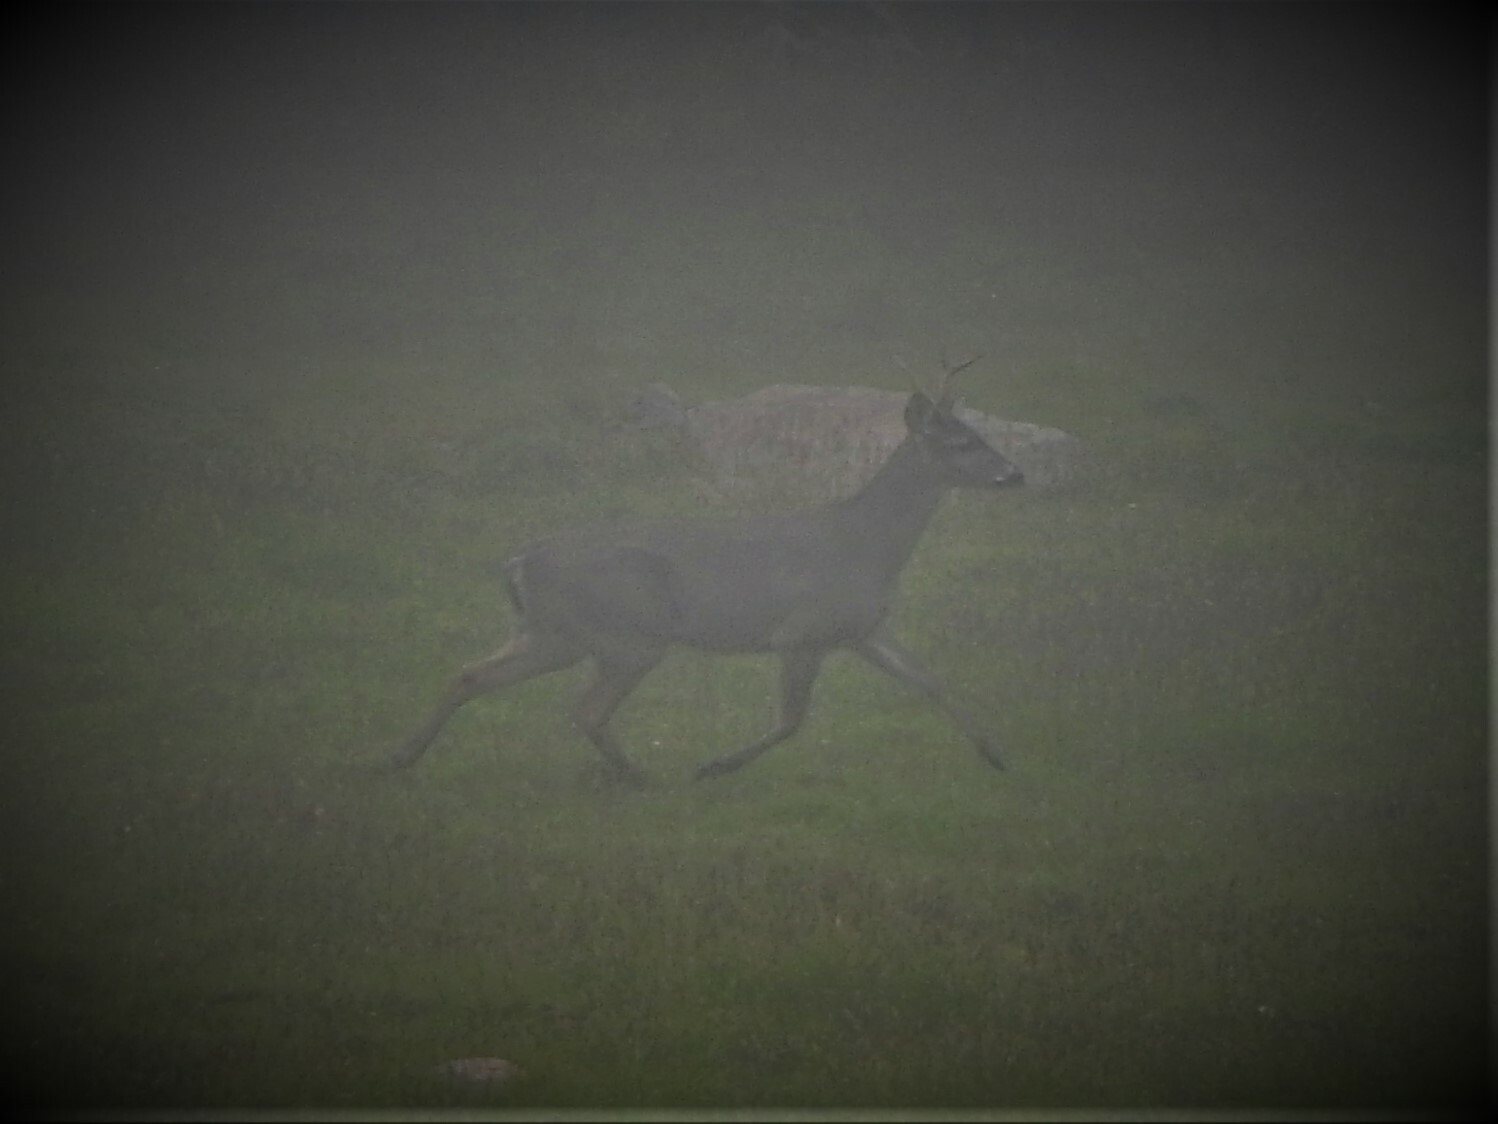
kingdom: Animalia
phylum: Chordata
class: Mammalia
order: Artiodactyla
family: Cervidae
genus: Odocoileus
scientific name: Odocoileus virginianus
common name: White-tailed deer
